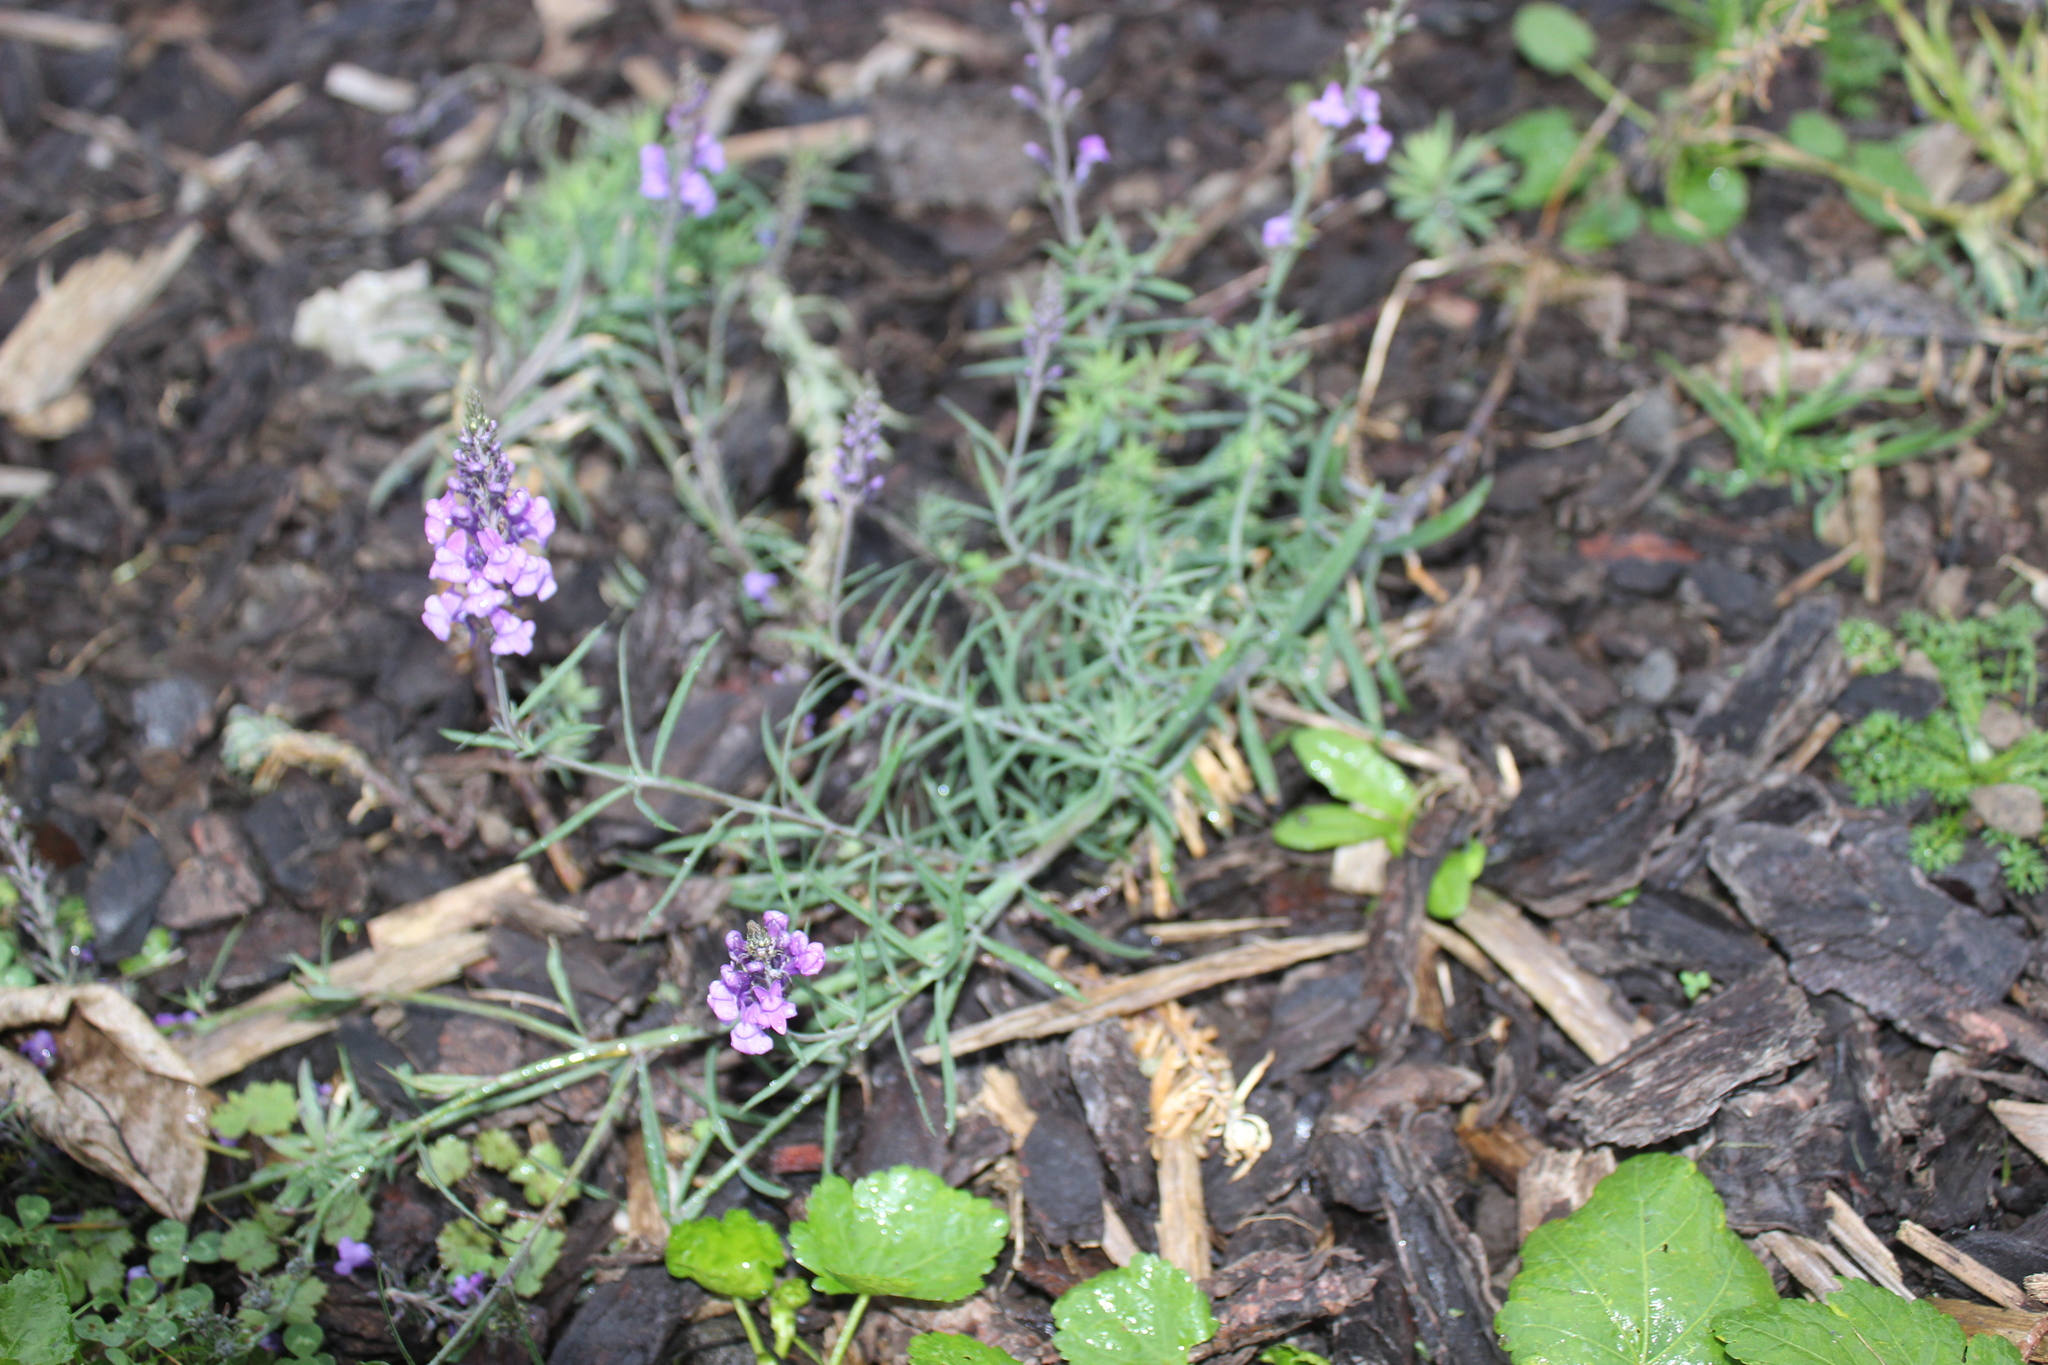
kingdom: Plantae
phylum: Tracheophyta
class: Magnoliopsida
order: Lamiales
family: Plantaginaceae
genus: Linaria
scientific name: Linaria purpurea
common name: Purple toadflax
